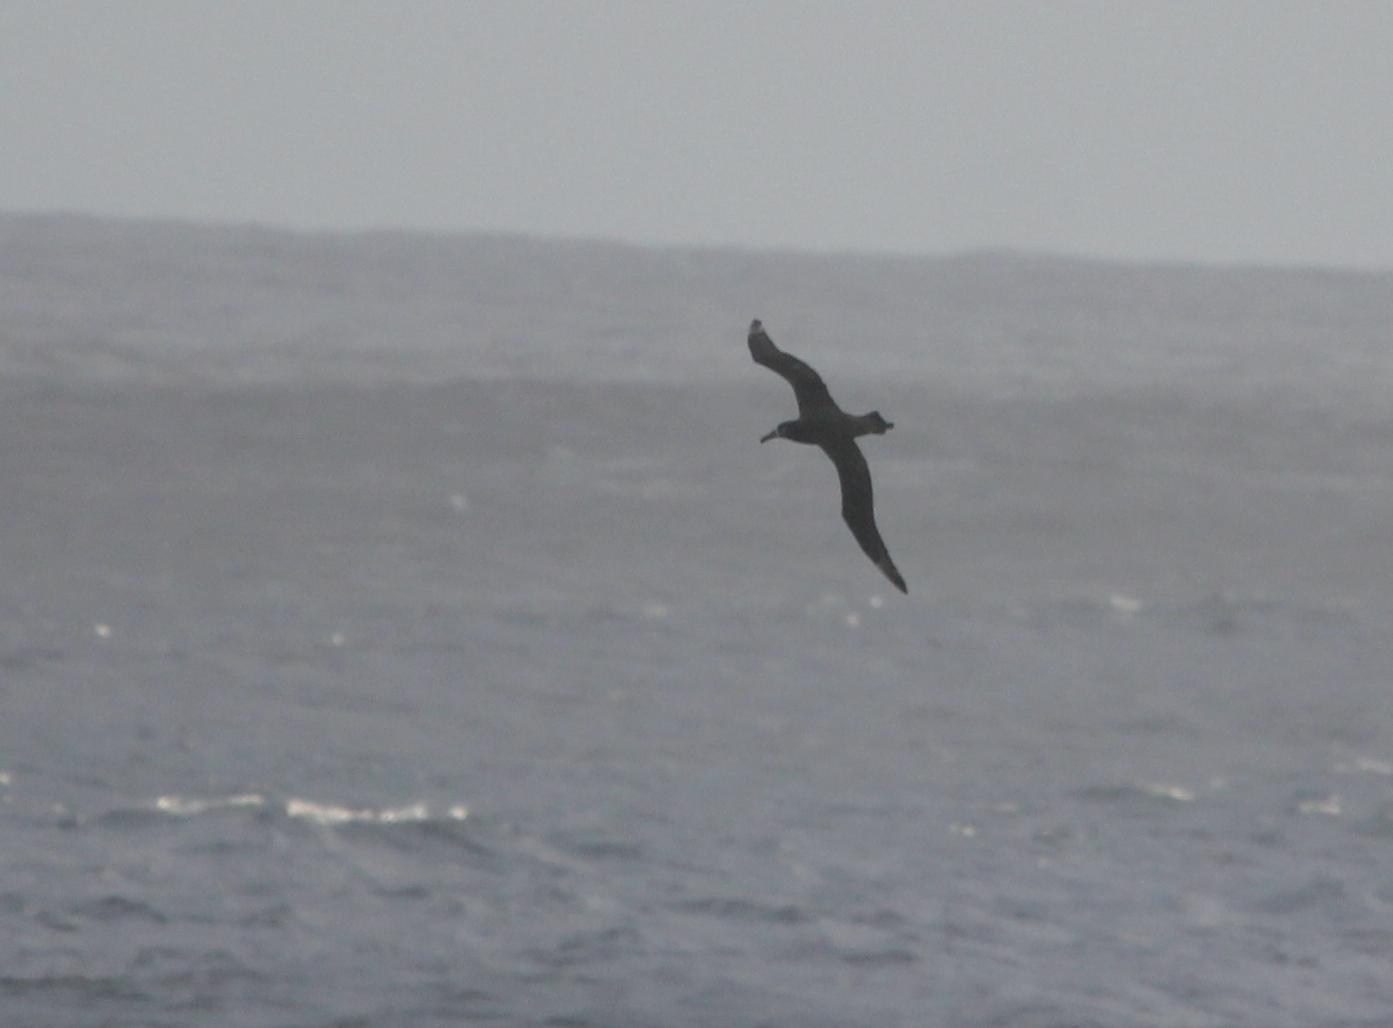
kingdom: Animalia
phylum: Chordata
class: Aves
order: Procellariiformes
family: Diomedeidae
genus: Phoebastria
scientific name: Phoebastria nigripes
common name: Black-footed albatross
